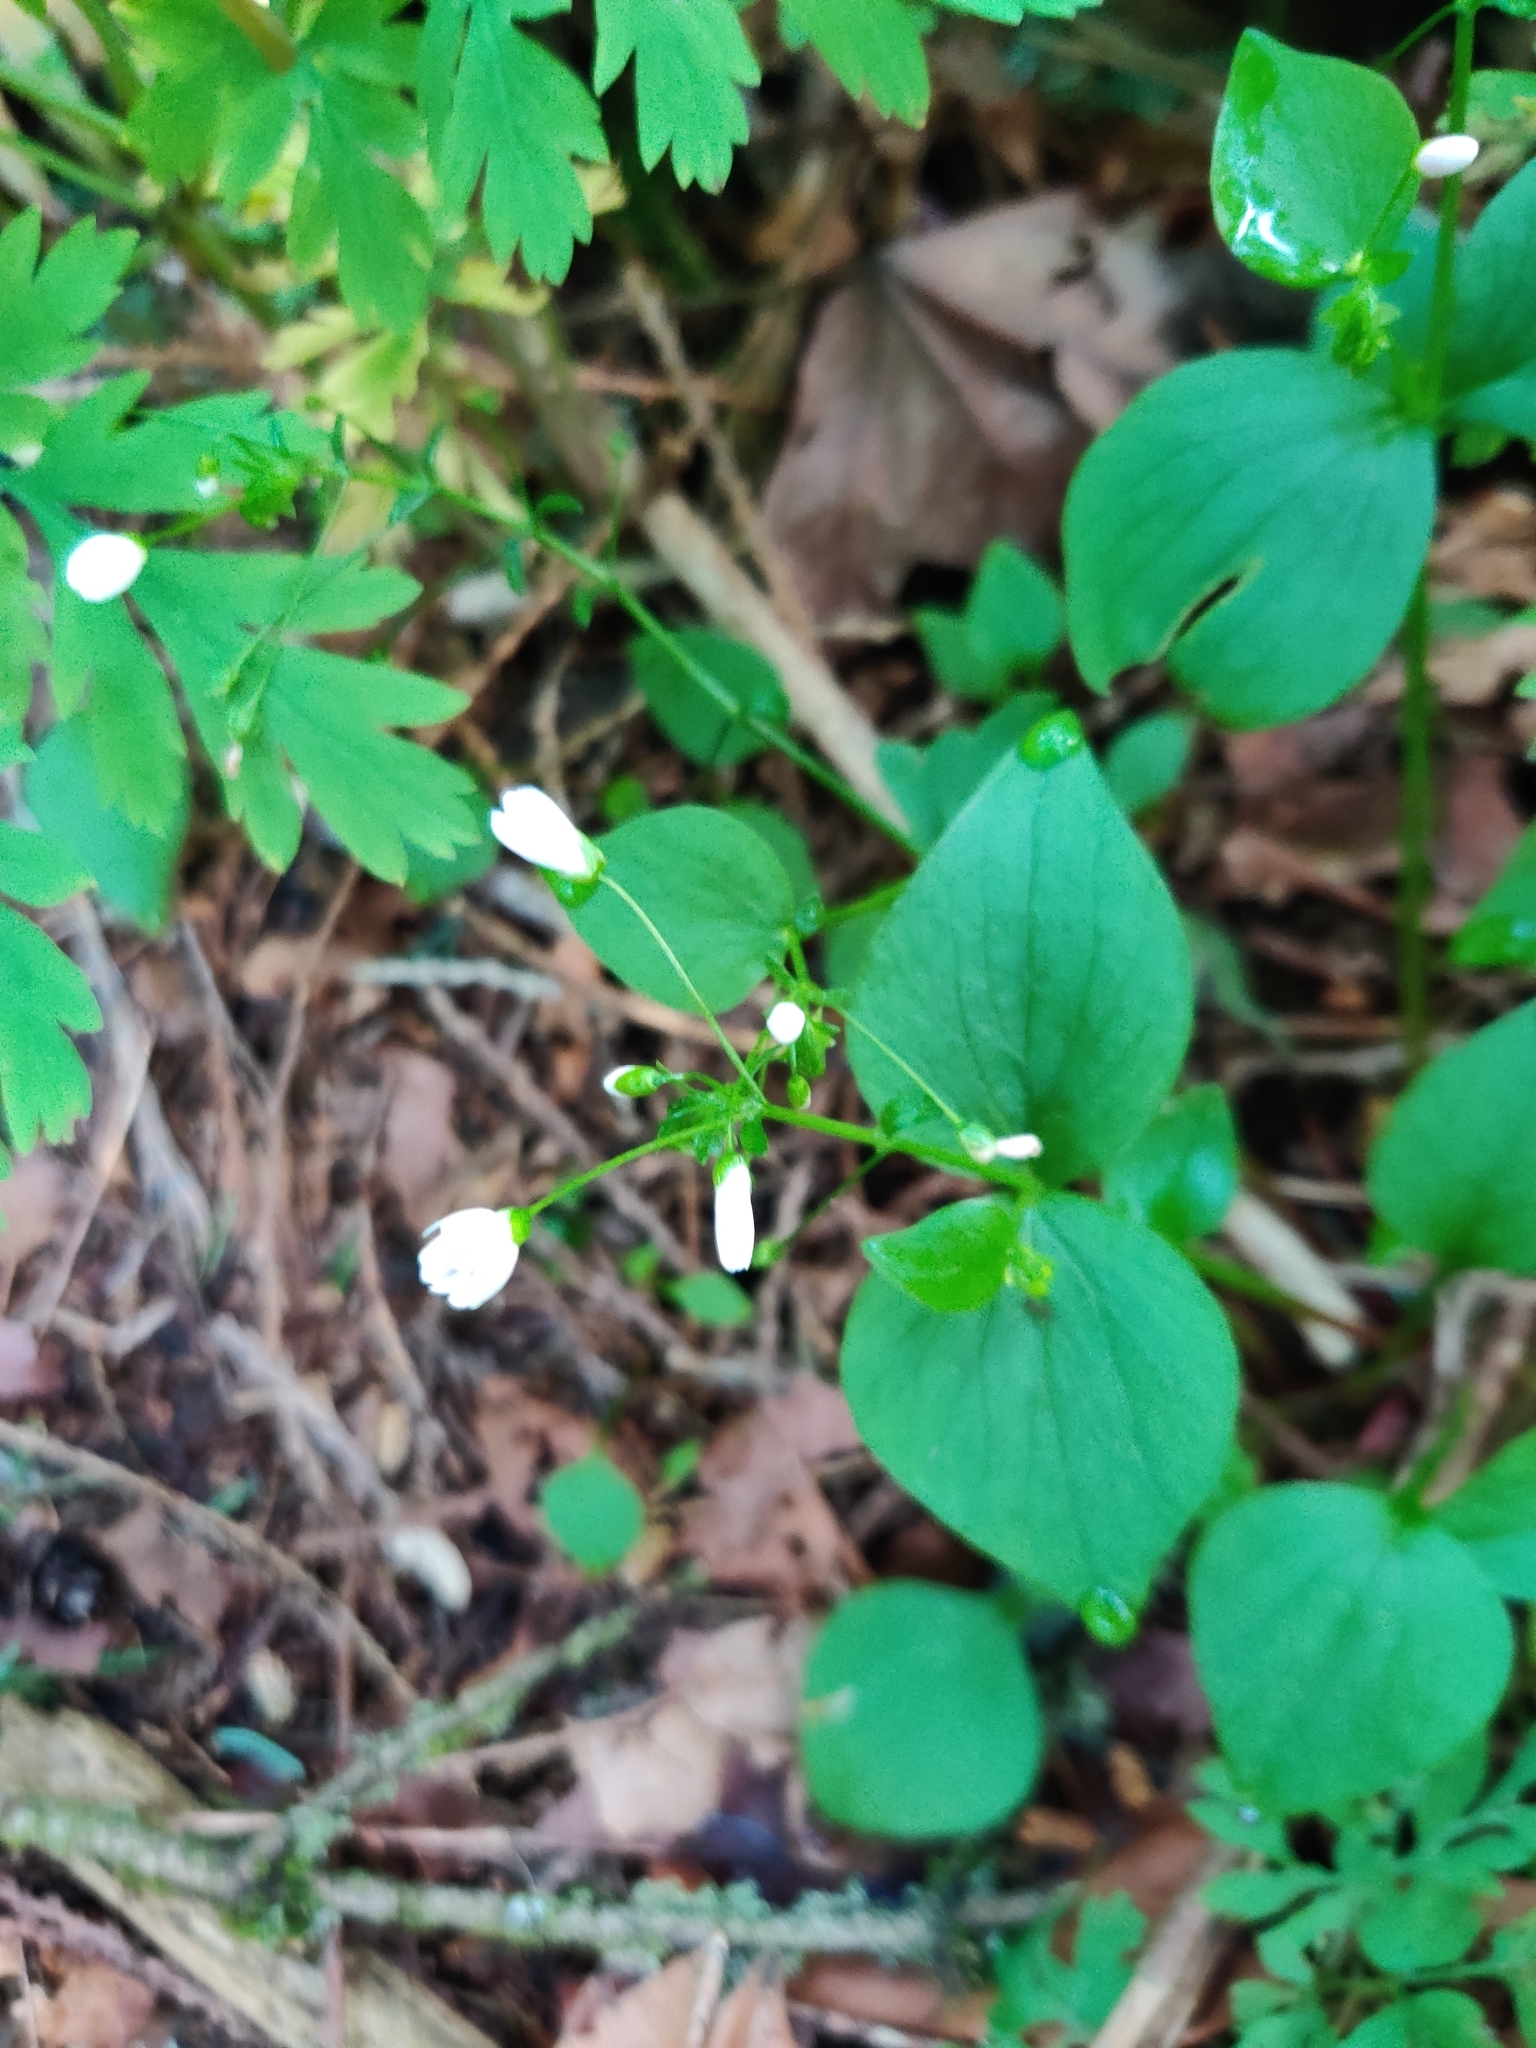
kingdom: Plantae
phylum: Tracheophyta
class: Magnoliopsida
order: Caryophyllales
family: Montiaceae
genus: Claytonia
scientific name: Claytonia sibirica
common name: Pink purslane
